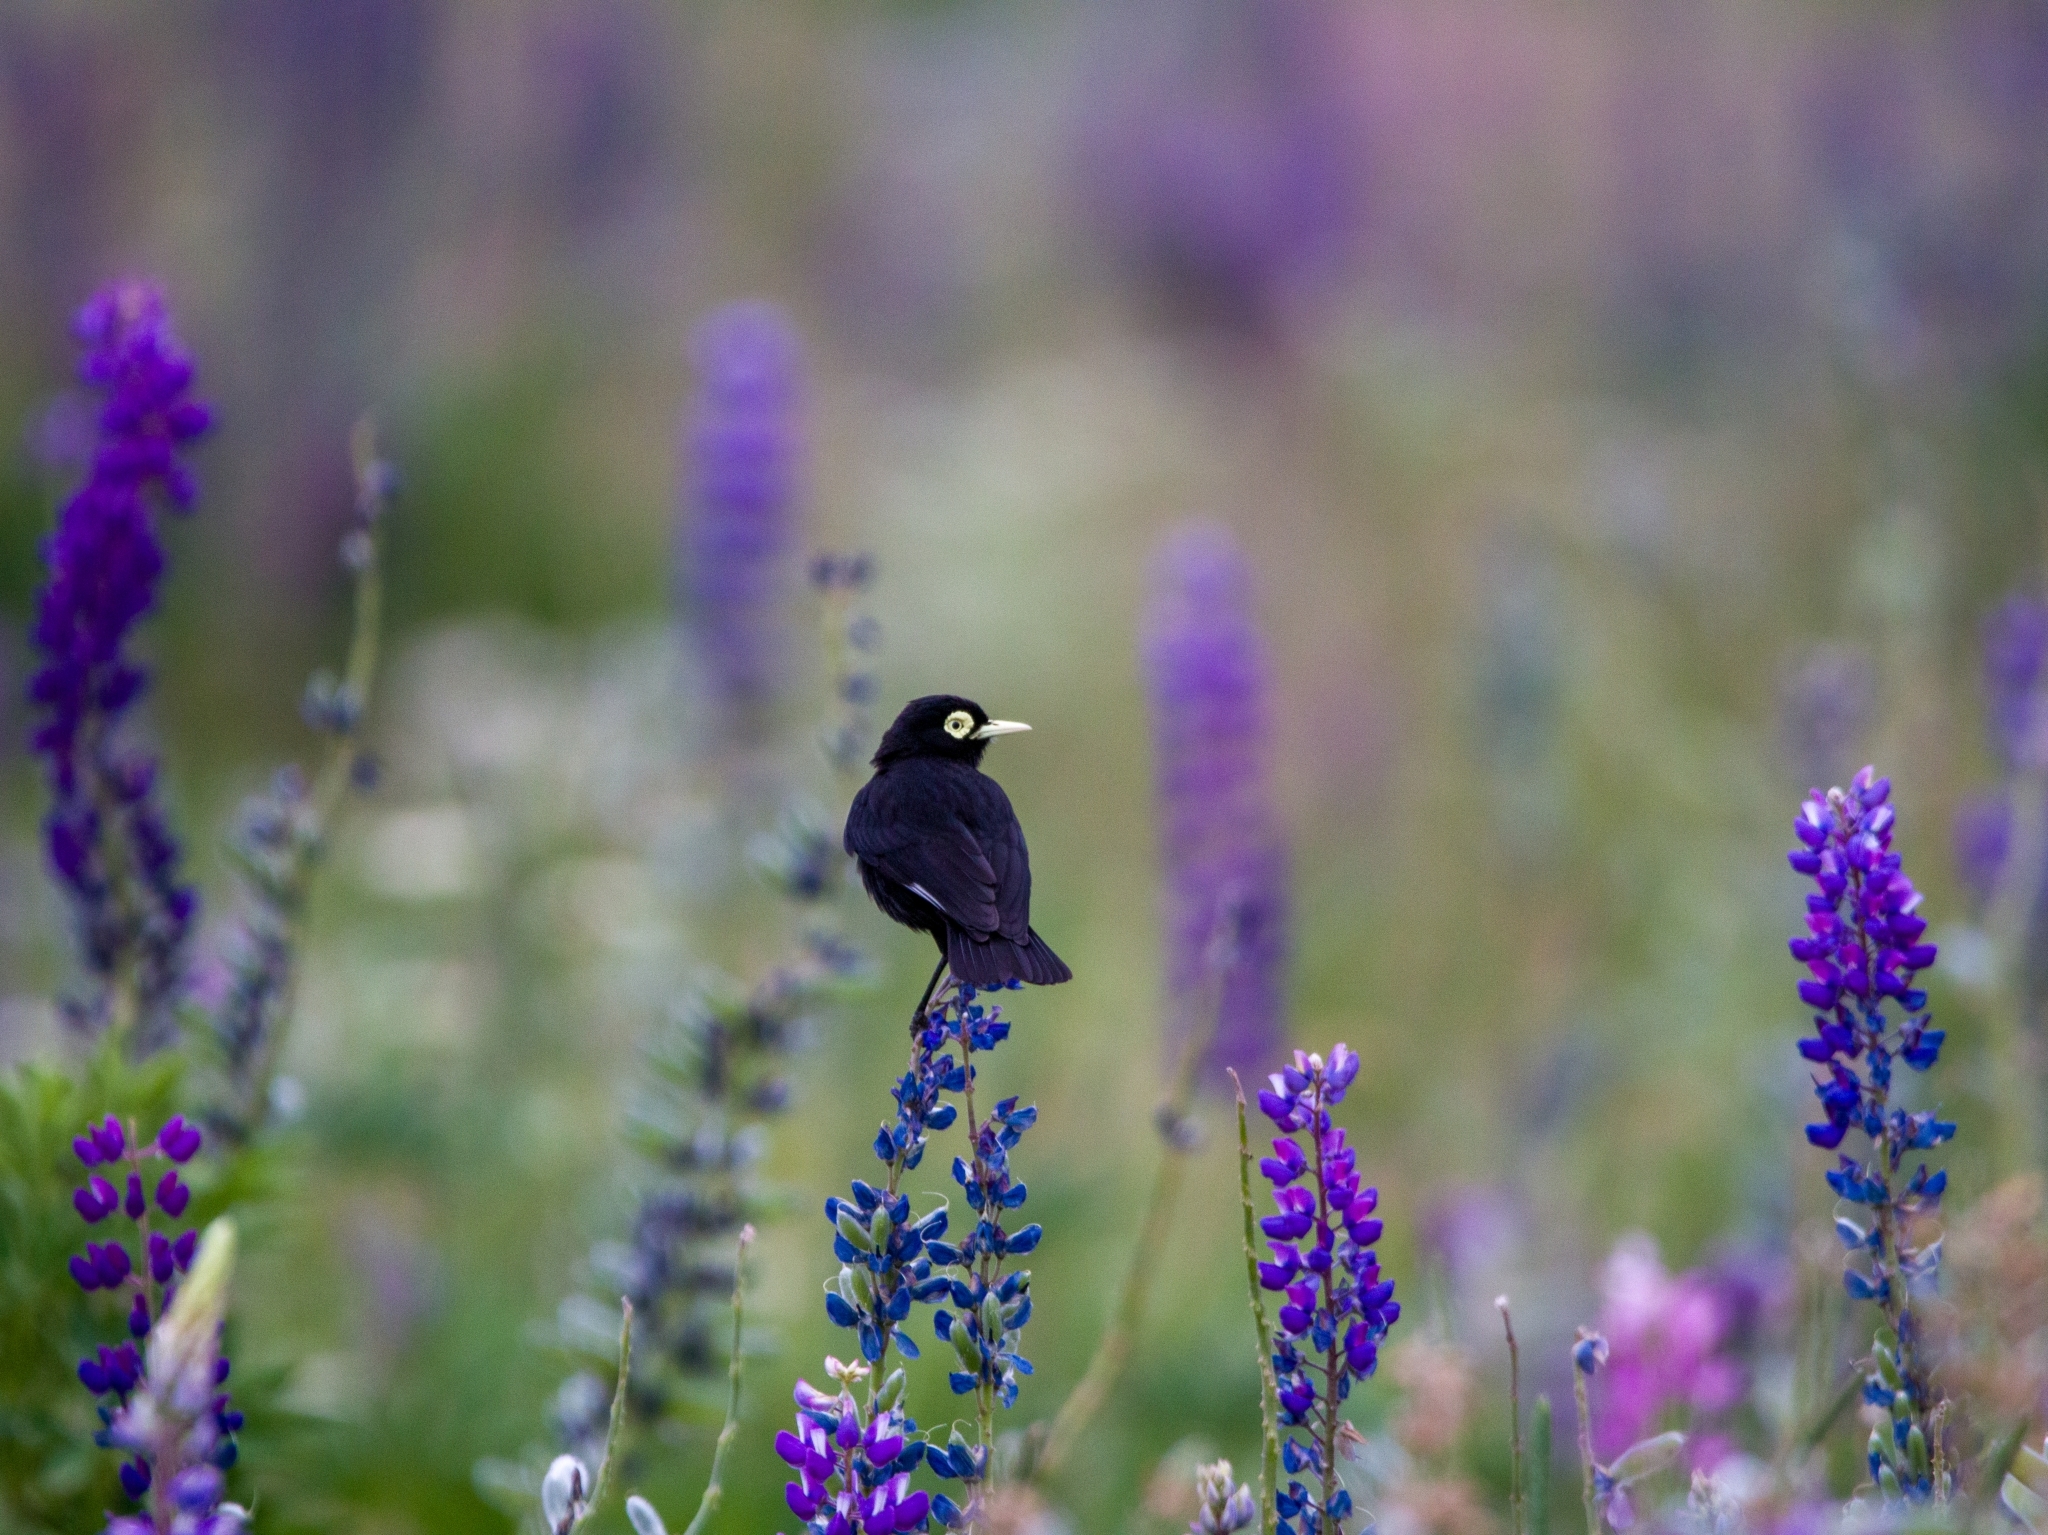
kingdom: Animalia
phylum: Chordata
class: Aves
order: Passeriformes
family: Tyrannidae
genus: Hymenops
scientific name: Hymenops perspicillatus
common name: Spectacled tyrant
